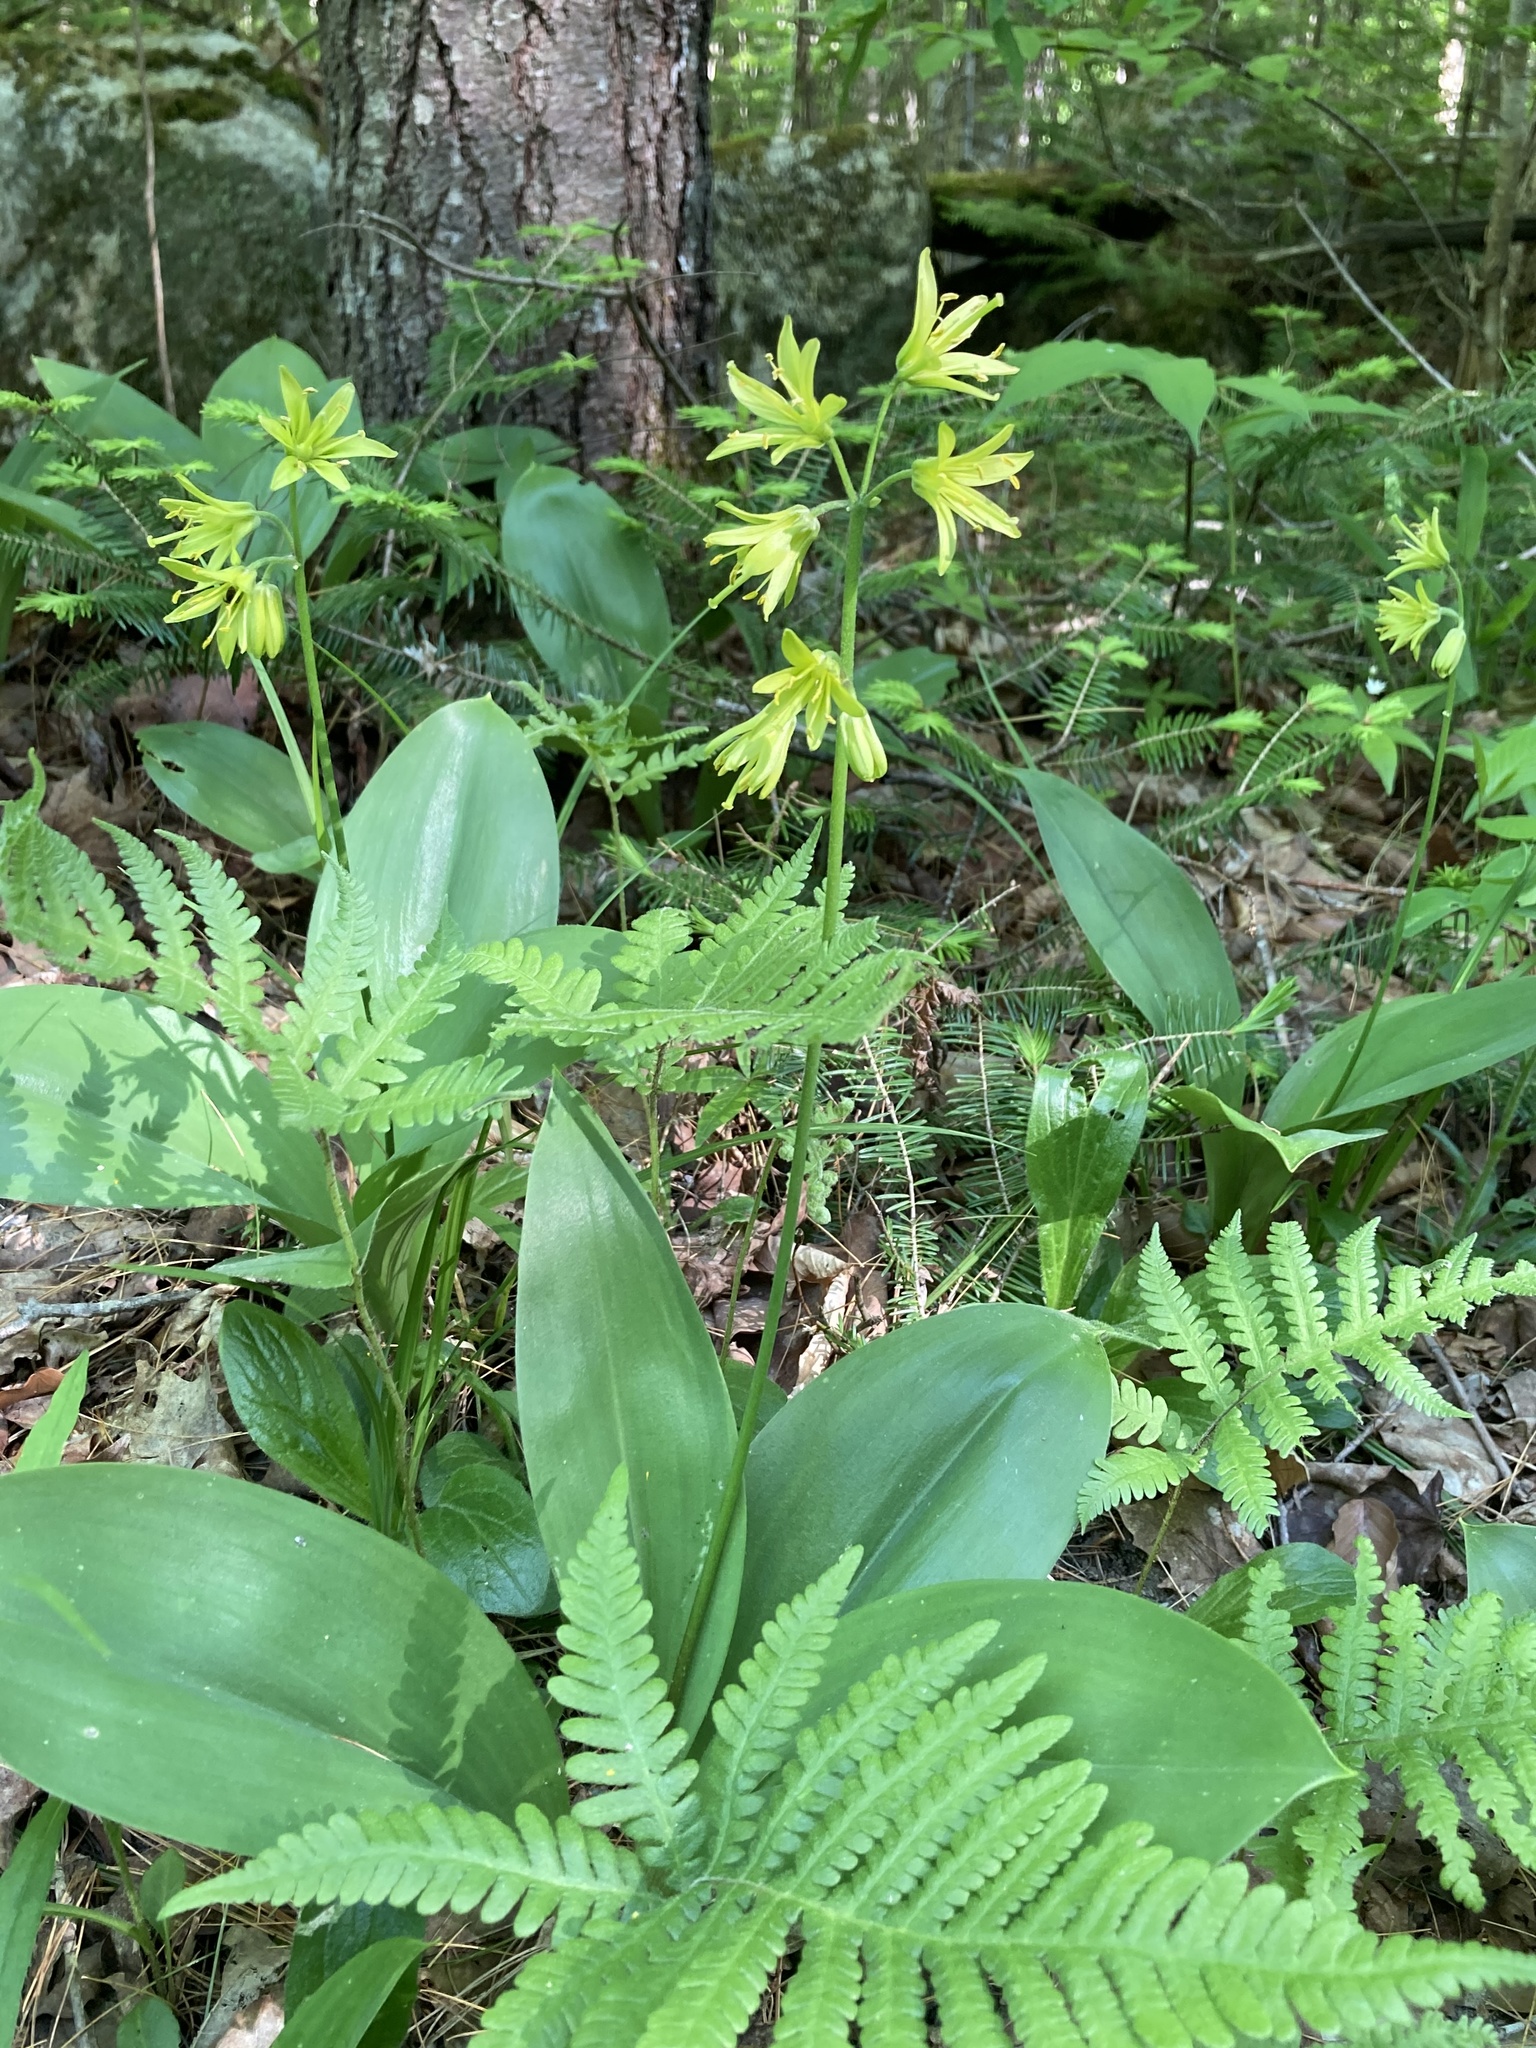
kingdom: Plantae
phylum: Tracheophyta
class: Liliopsida
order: Liliales
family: Liliaceae
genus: Clintonia
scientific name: Clintonia borealis
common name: Yellow clintonia
